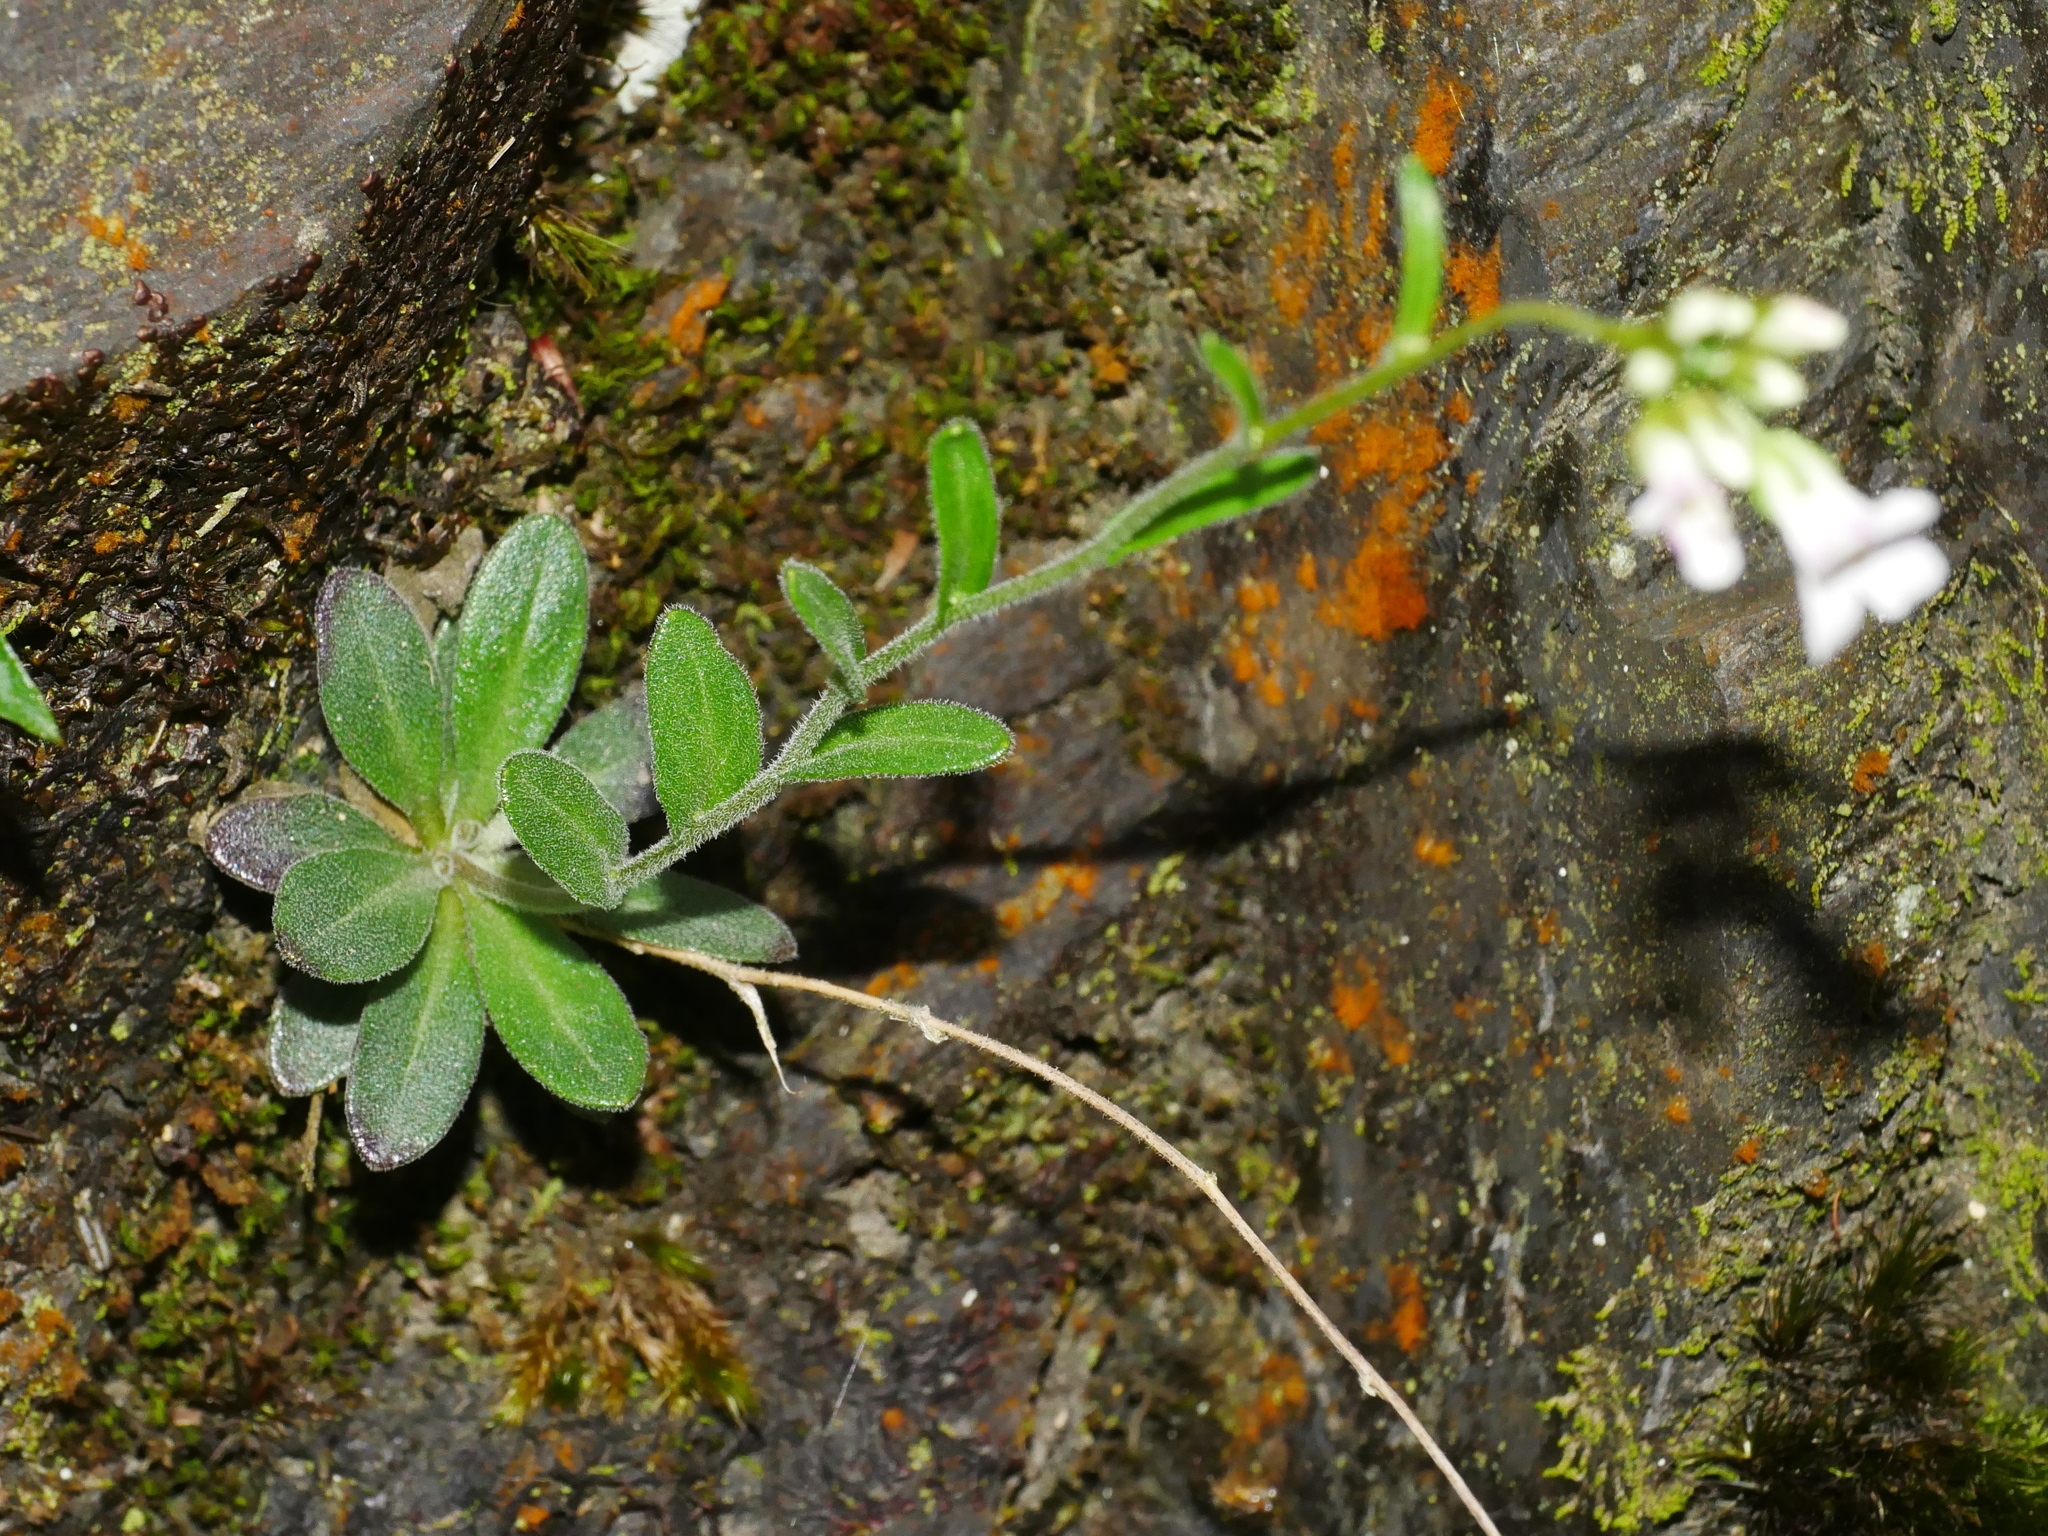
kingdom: Plantae
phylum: Tracheophyta
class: Magnoliopsida
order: Brassicales
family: Brassicaceae
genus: Arabis
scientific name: Arabis serrata
